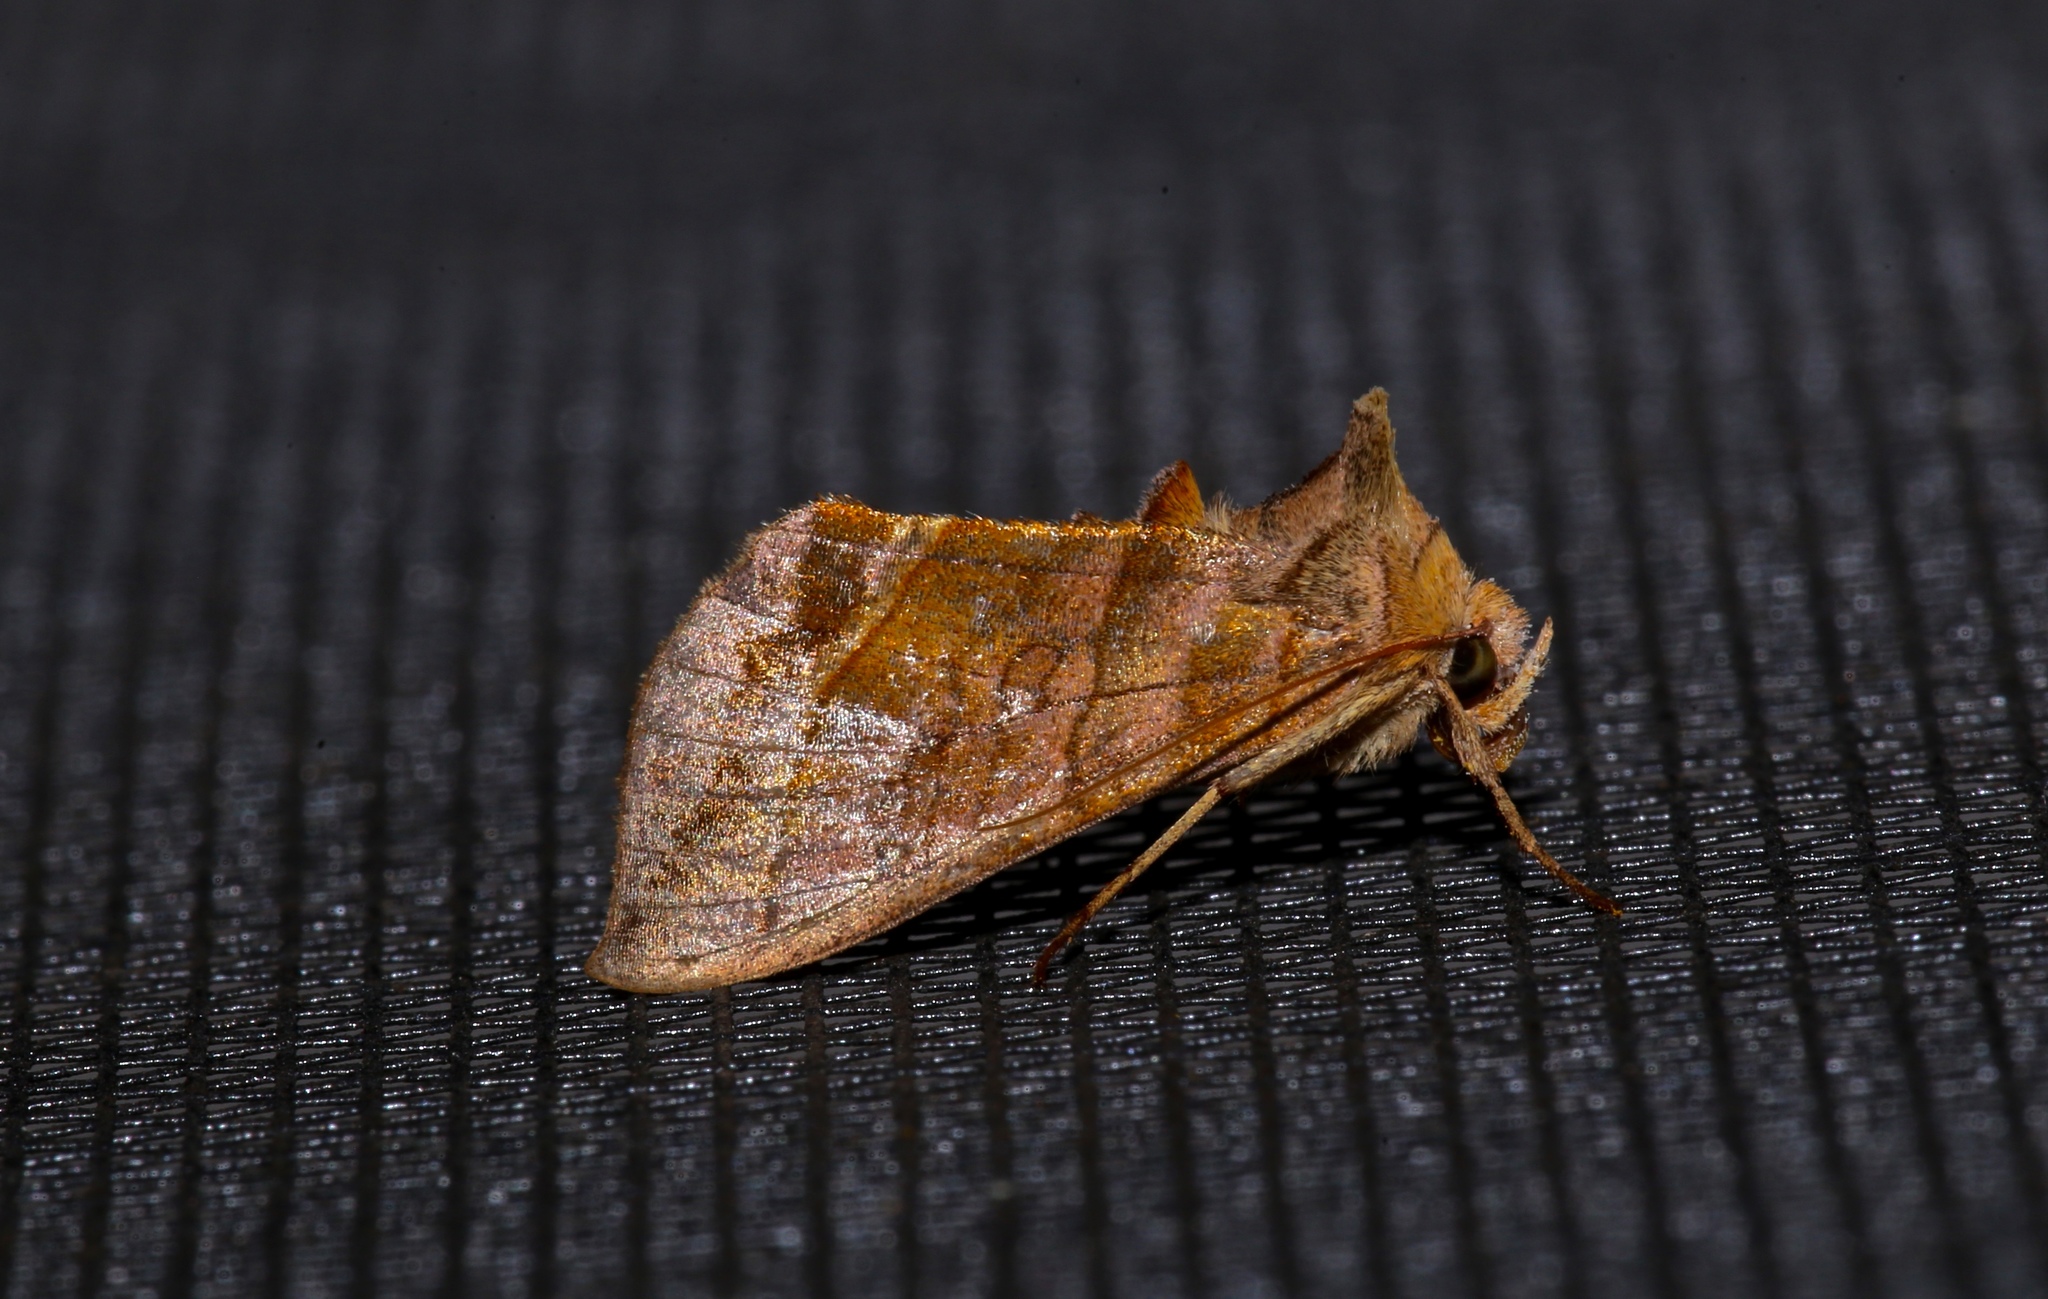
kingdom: Animalia
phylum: Arthropoda
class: Insecta
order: Lepidoptera
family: Noctuidae
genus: Diachrysia
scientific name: Diachrysia aereoides
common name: Dark-spotted looper moth
